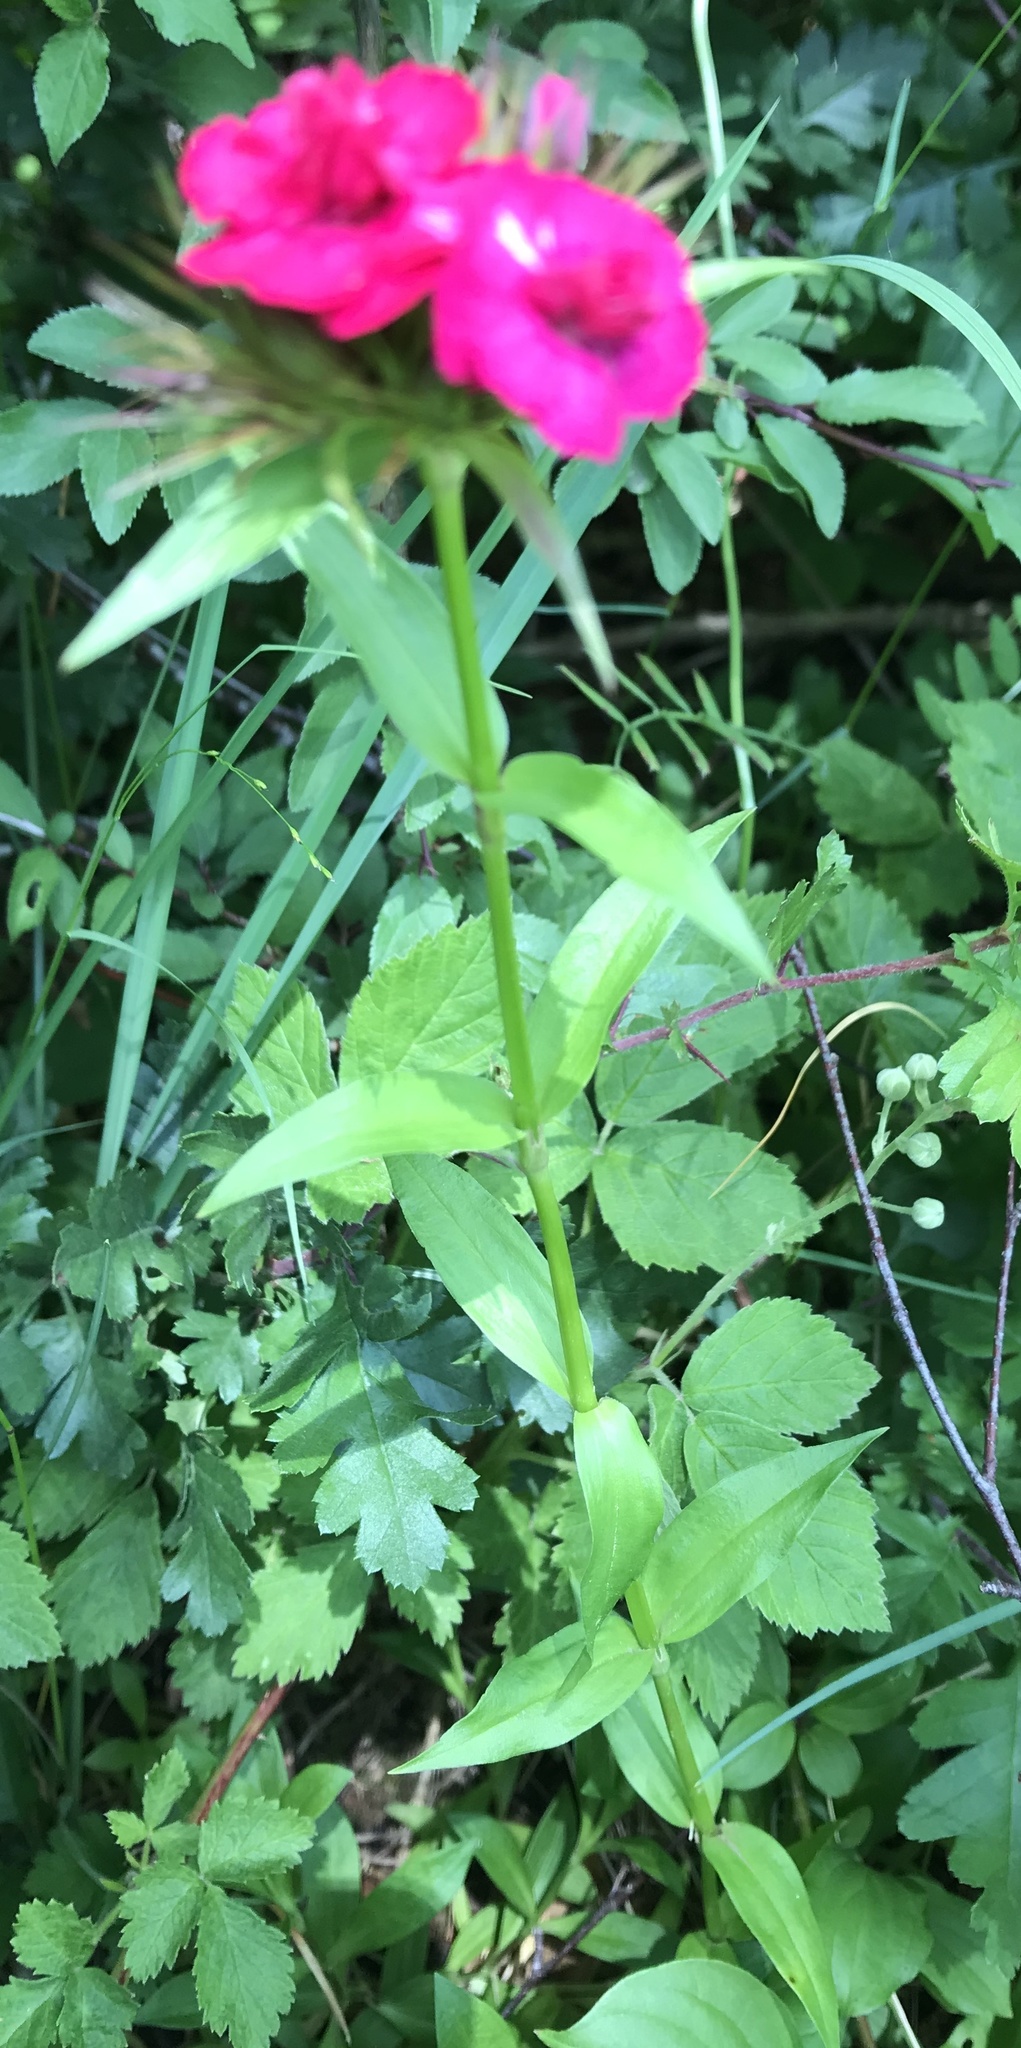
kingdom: Plantae
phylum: Tracheophyta
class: Magnoliopsida
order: Caryophyllales
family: Caryophyllaceae
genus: Dianthus
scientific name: Dianthus barbatus
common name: Sweet-william
